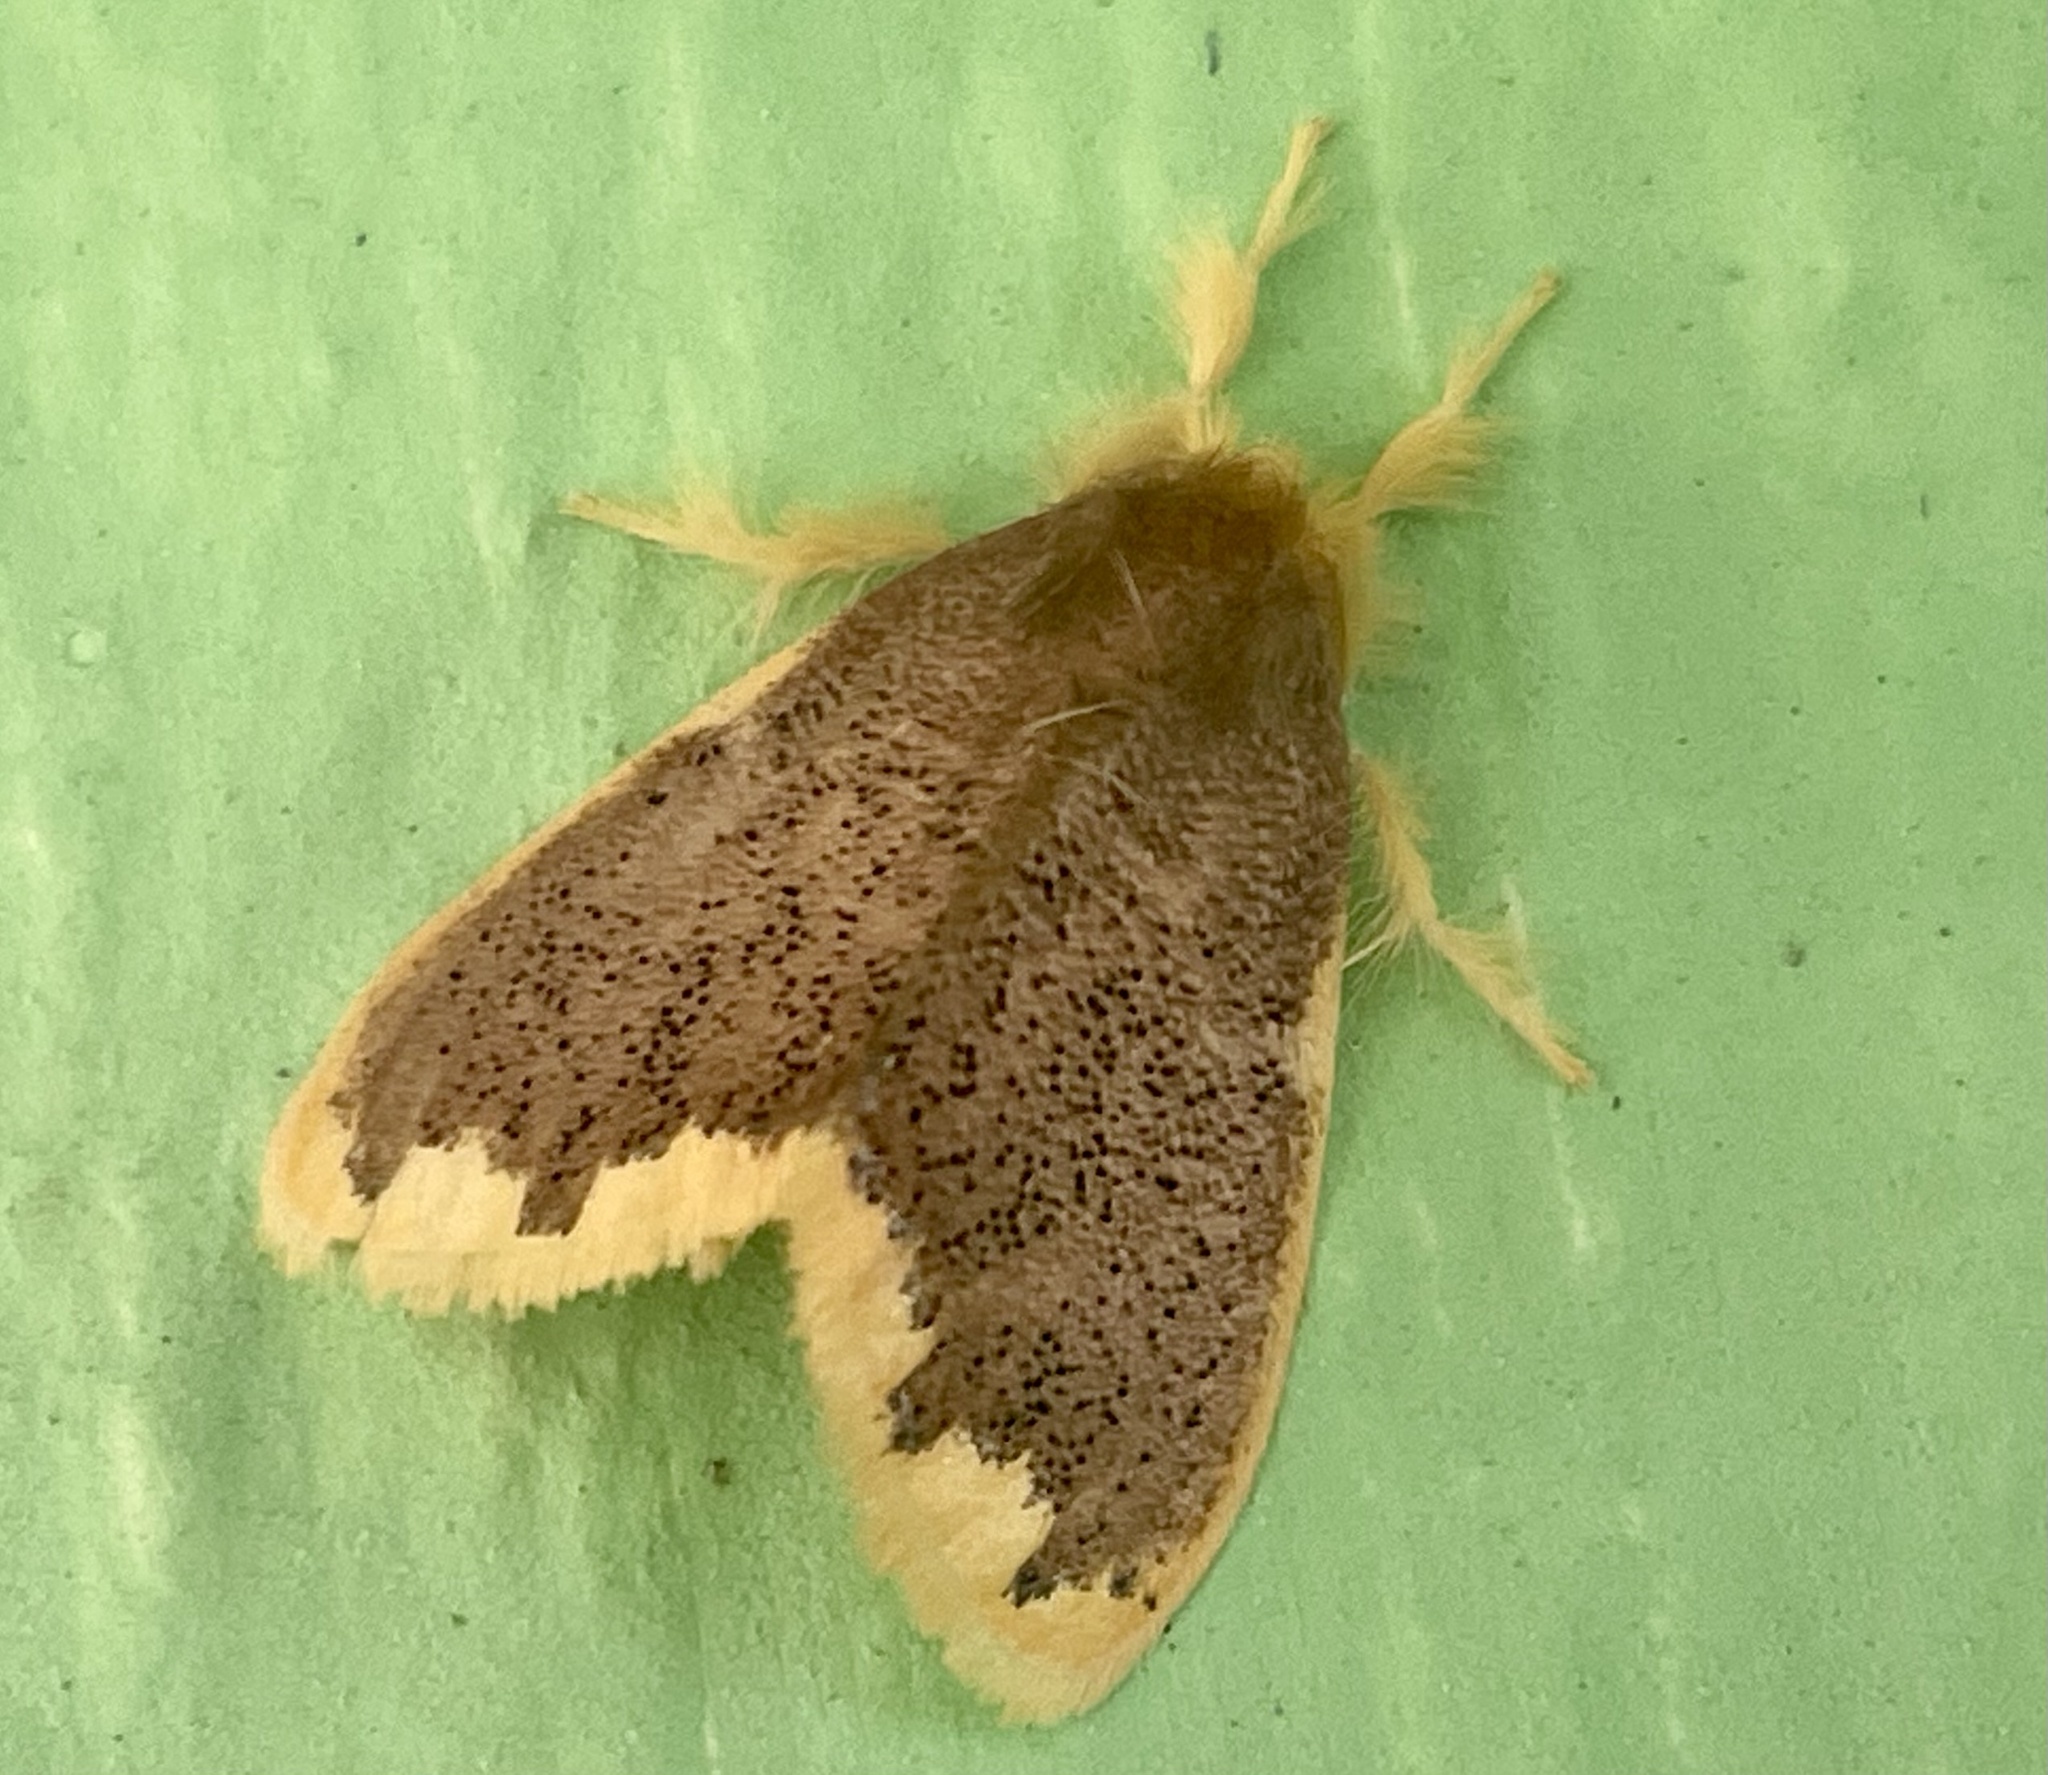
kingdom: Animalia
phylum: Arthropoda
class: Insecta
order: Lepidoptera
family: Erebidae
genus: Orvasca
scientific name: Orvasca subnotata
